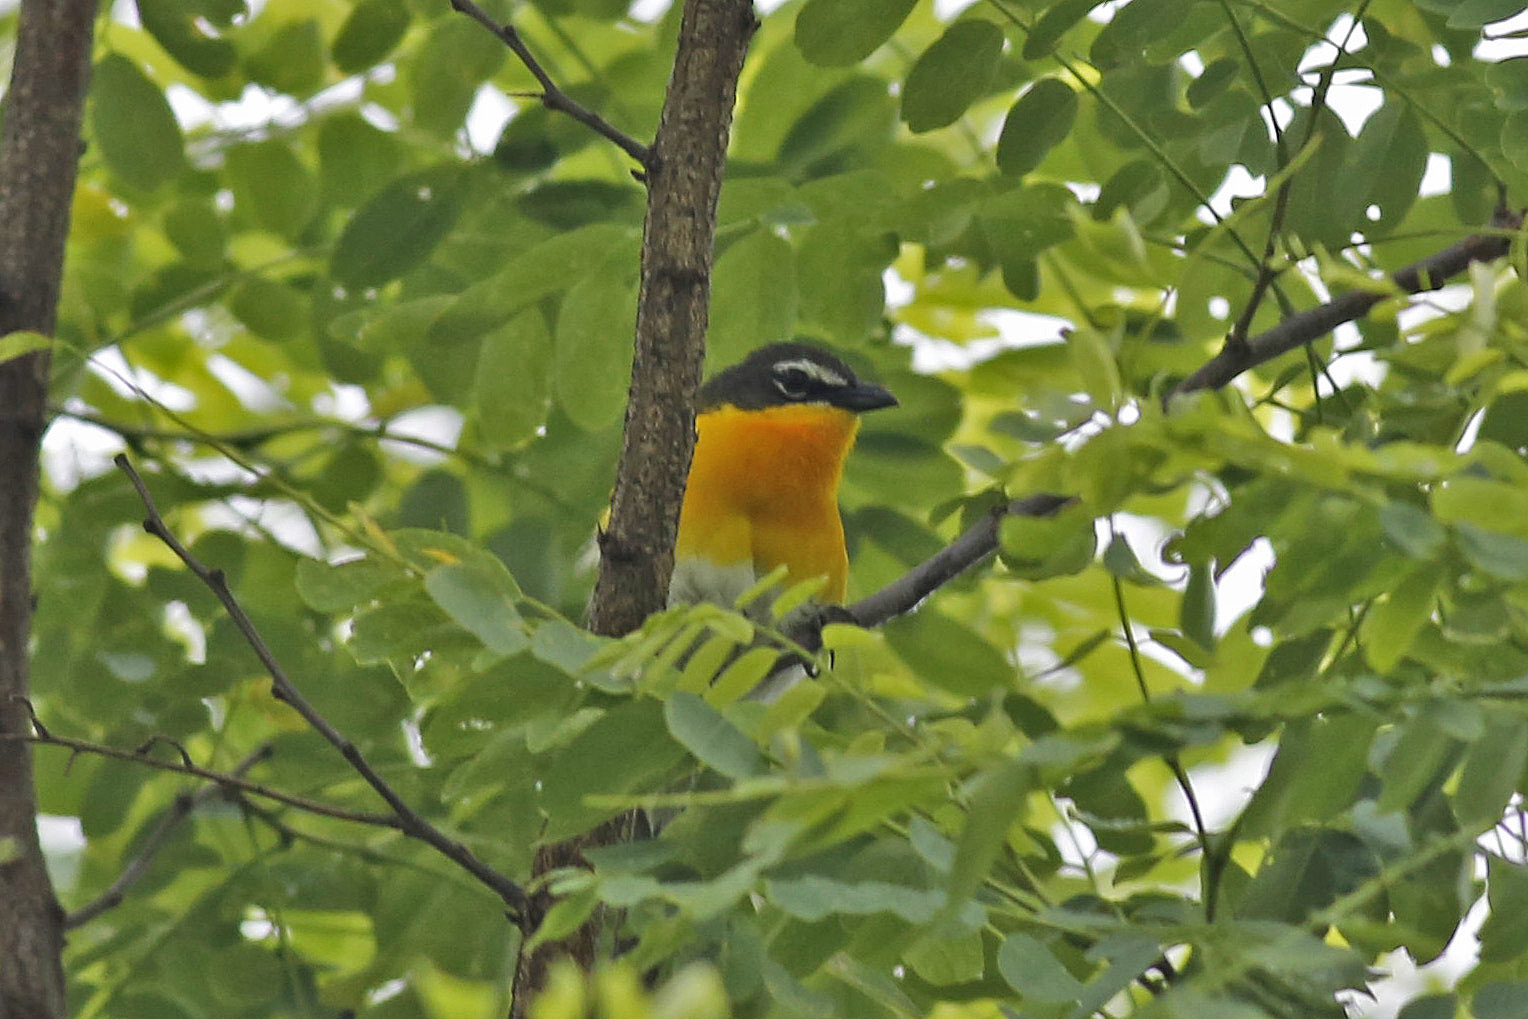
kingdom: Animalia
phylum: Chordata
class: Aves
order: Passeriformes
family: Parulidae
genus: Icteria
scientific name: Icteria virens
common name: Yellow-breasted chat
